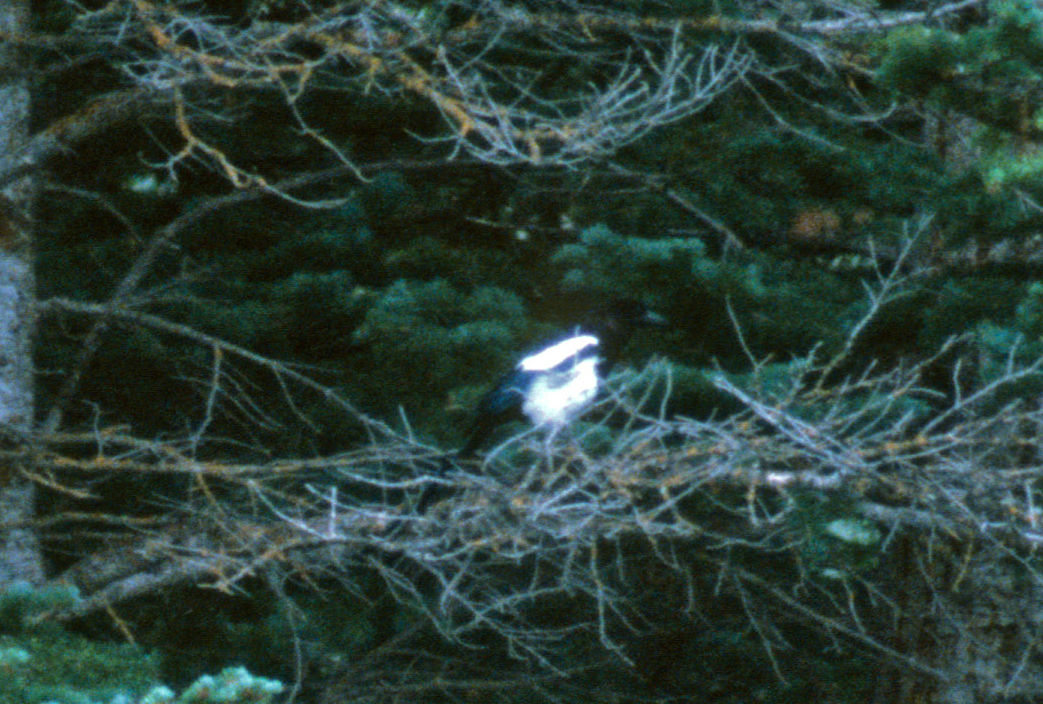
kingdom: Animalia
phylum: Chordata
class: Aves
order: Passeriformes
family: Corvidae
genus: Pica
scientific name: Pica hudsonia
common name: Black-billed magpie
